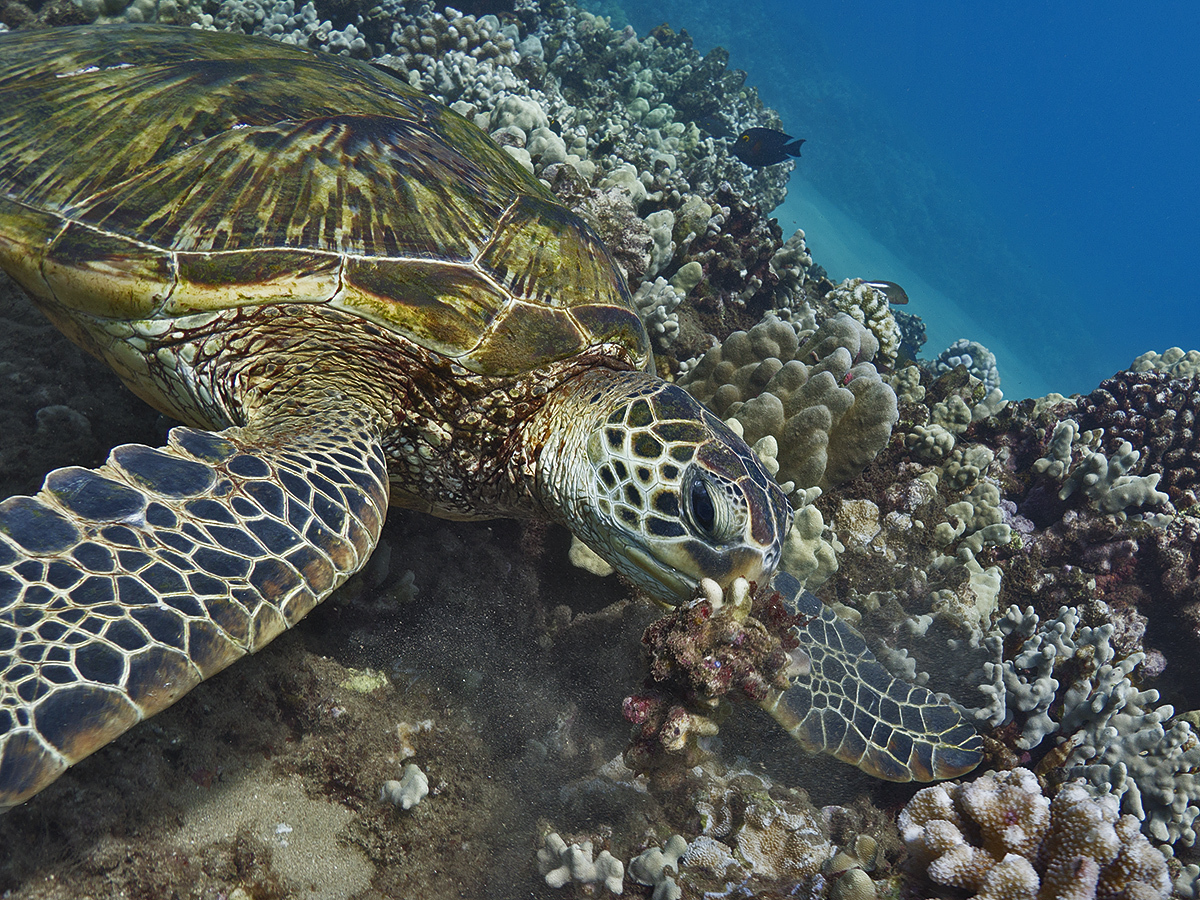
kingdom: Animalia
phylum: Chordata
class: Testudines
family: Cheloniidae
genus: Chelonia
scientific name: Chelonia mydas
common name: Green turtle
